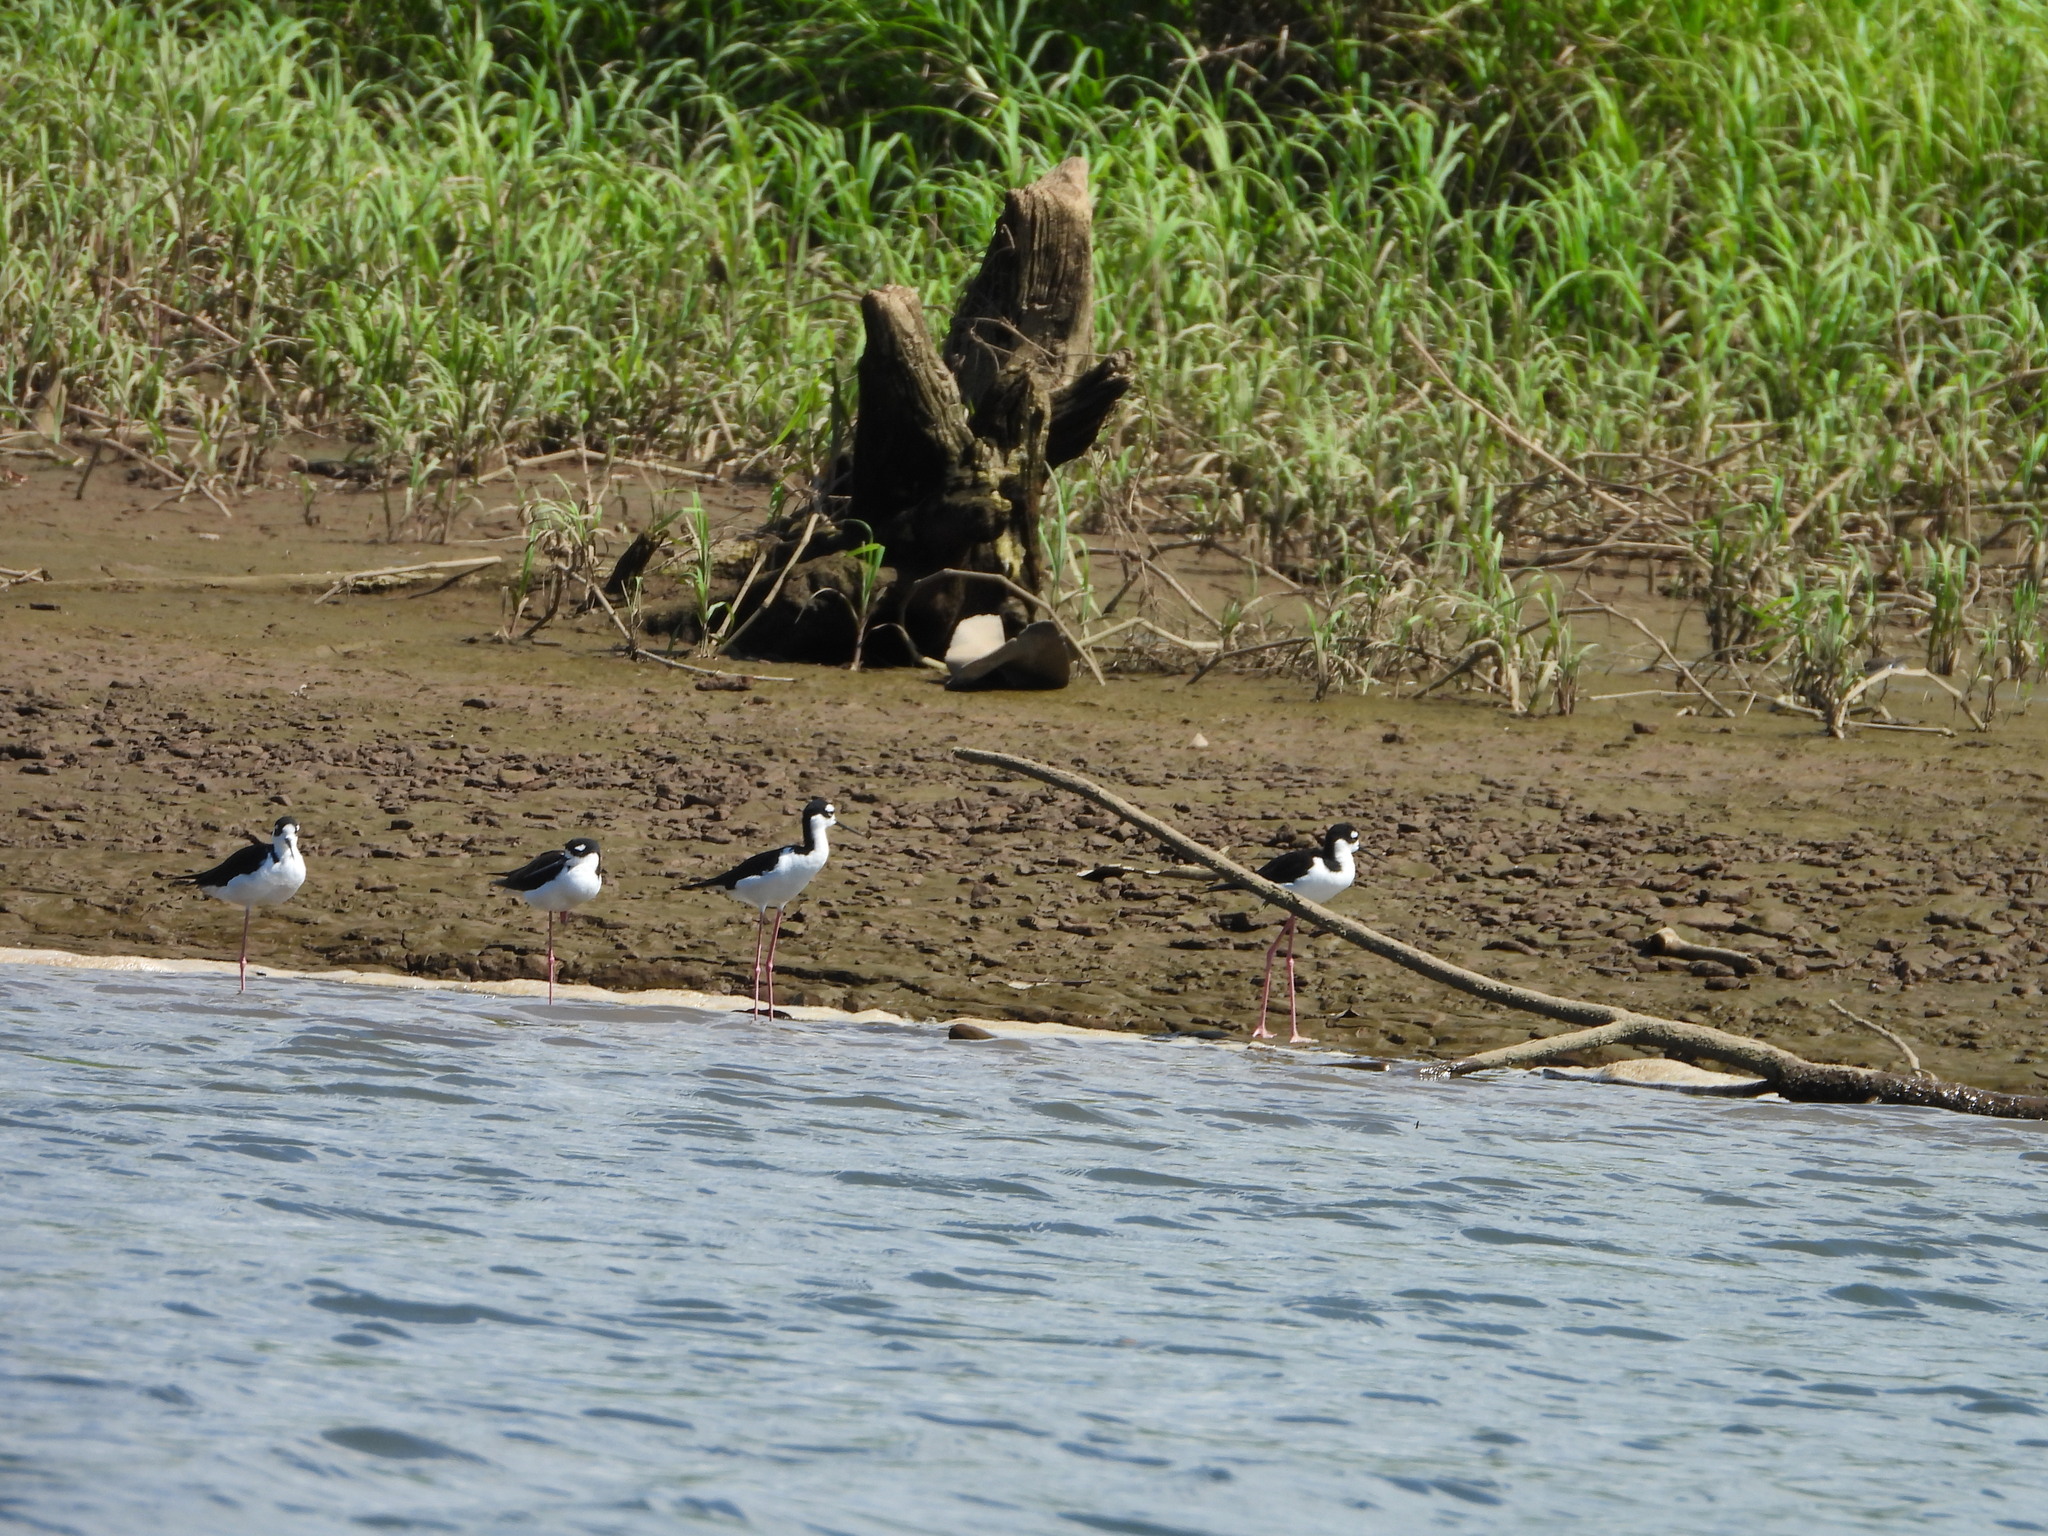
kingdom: Animalia
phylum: Chordata
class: Aves
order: Charadriiformes
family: Recurvirostridae
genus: Himantopus
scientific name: Himantopus mexicanus
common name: Black-necked stilt
